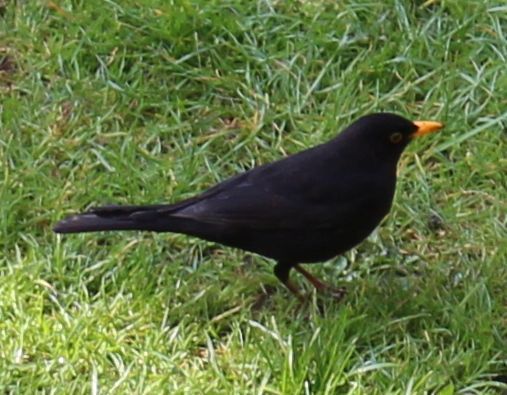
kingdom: Animalia
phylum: Chordata
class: Aves
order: Passeriformes
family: Turdidae
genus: Turdus
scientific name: Turdus merula
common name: Common blackbird
